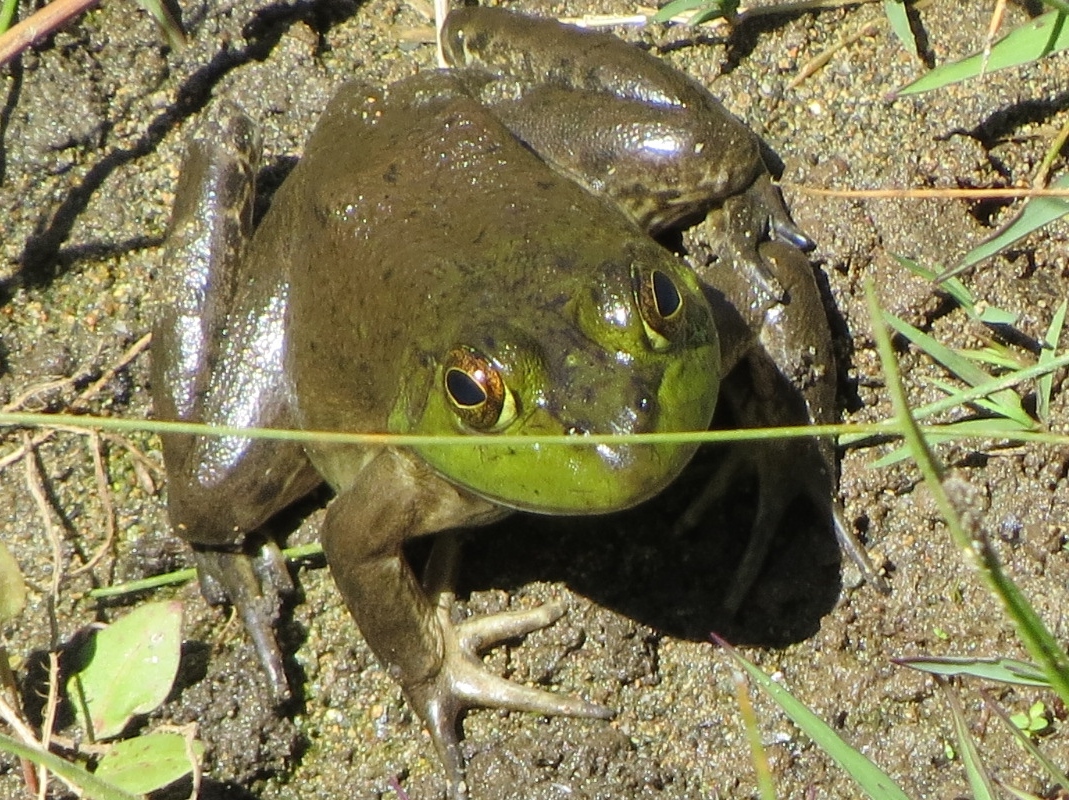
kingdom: Animalia
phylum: Chordata
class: Amphibia
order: Anura
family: Ranidae
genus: Lithobates
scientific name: Lithobates catesbeianus
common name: American bullfrog
